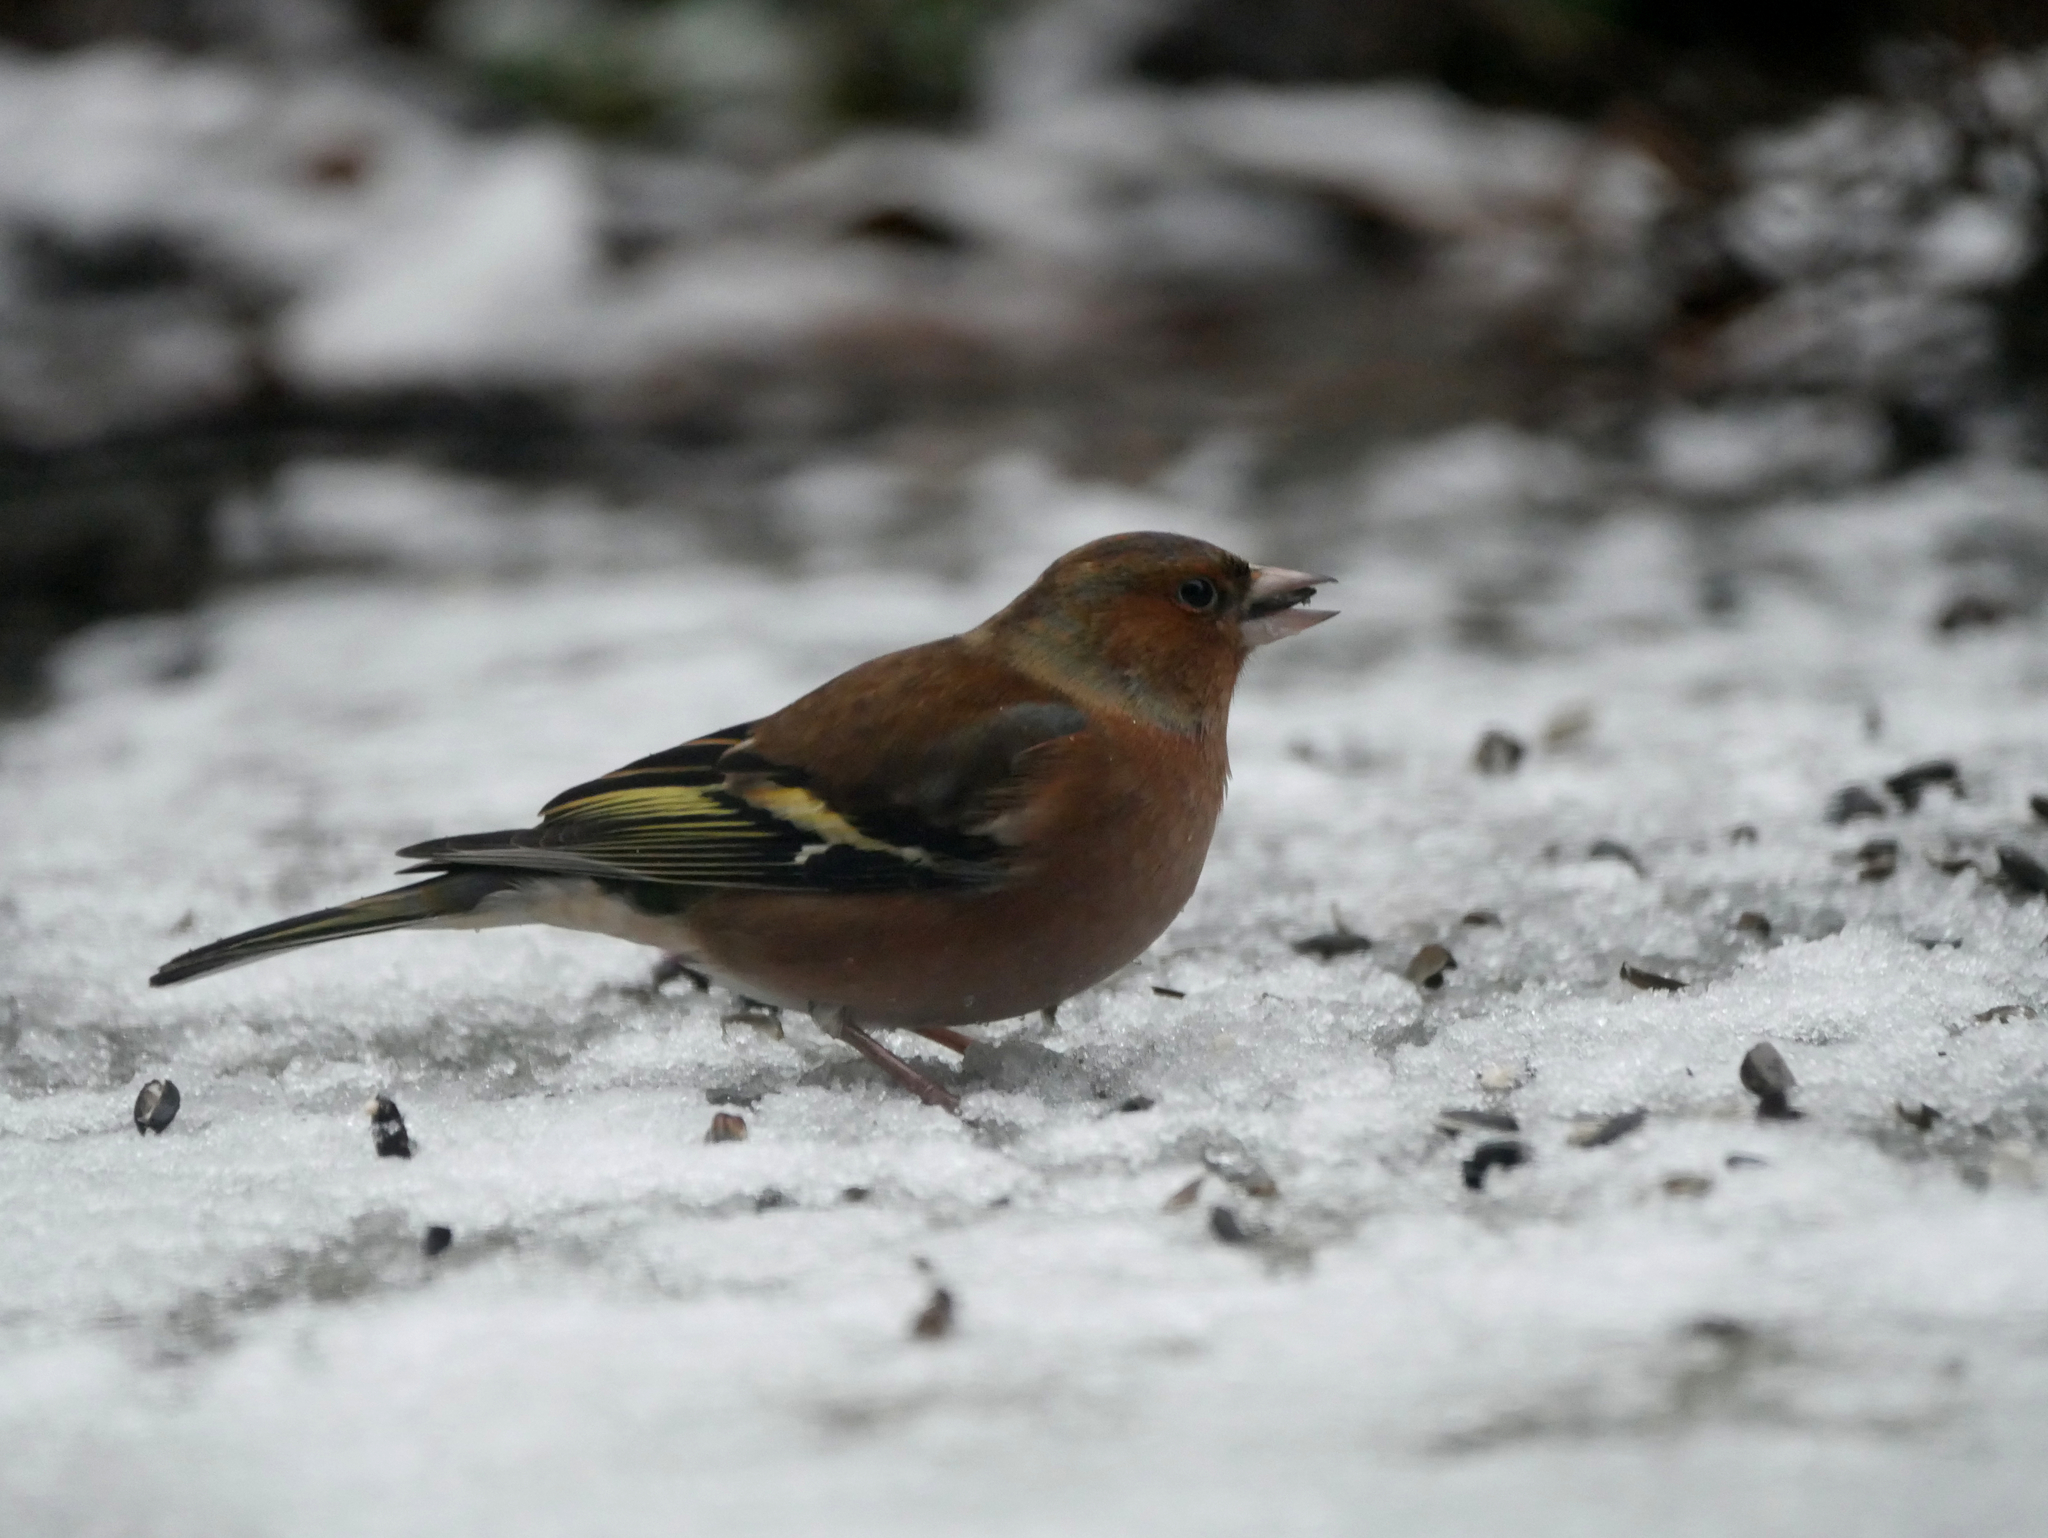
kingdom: Animalia
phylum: Chordata
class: Aves
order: Passeriformes
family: Fringillidae
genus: Fringilla
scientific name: Fringilla coelebs
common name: Common chaffinch
